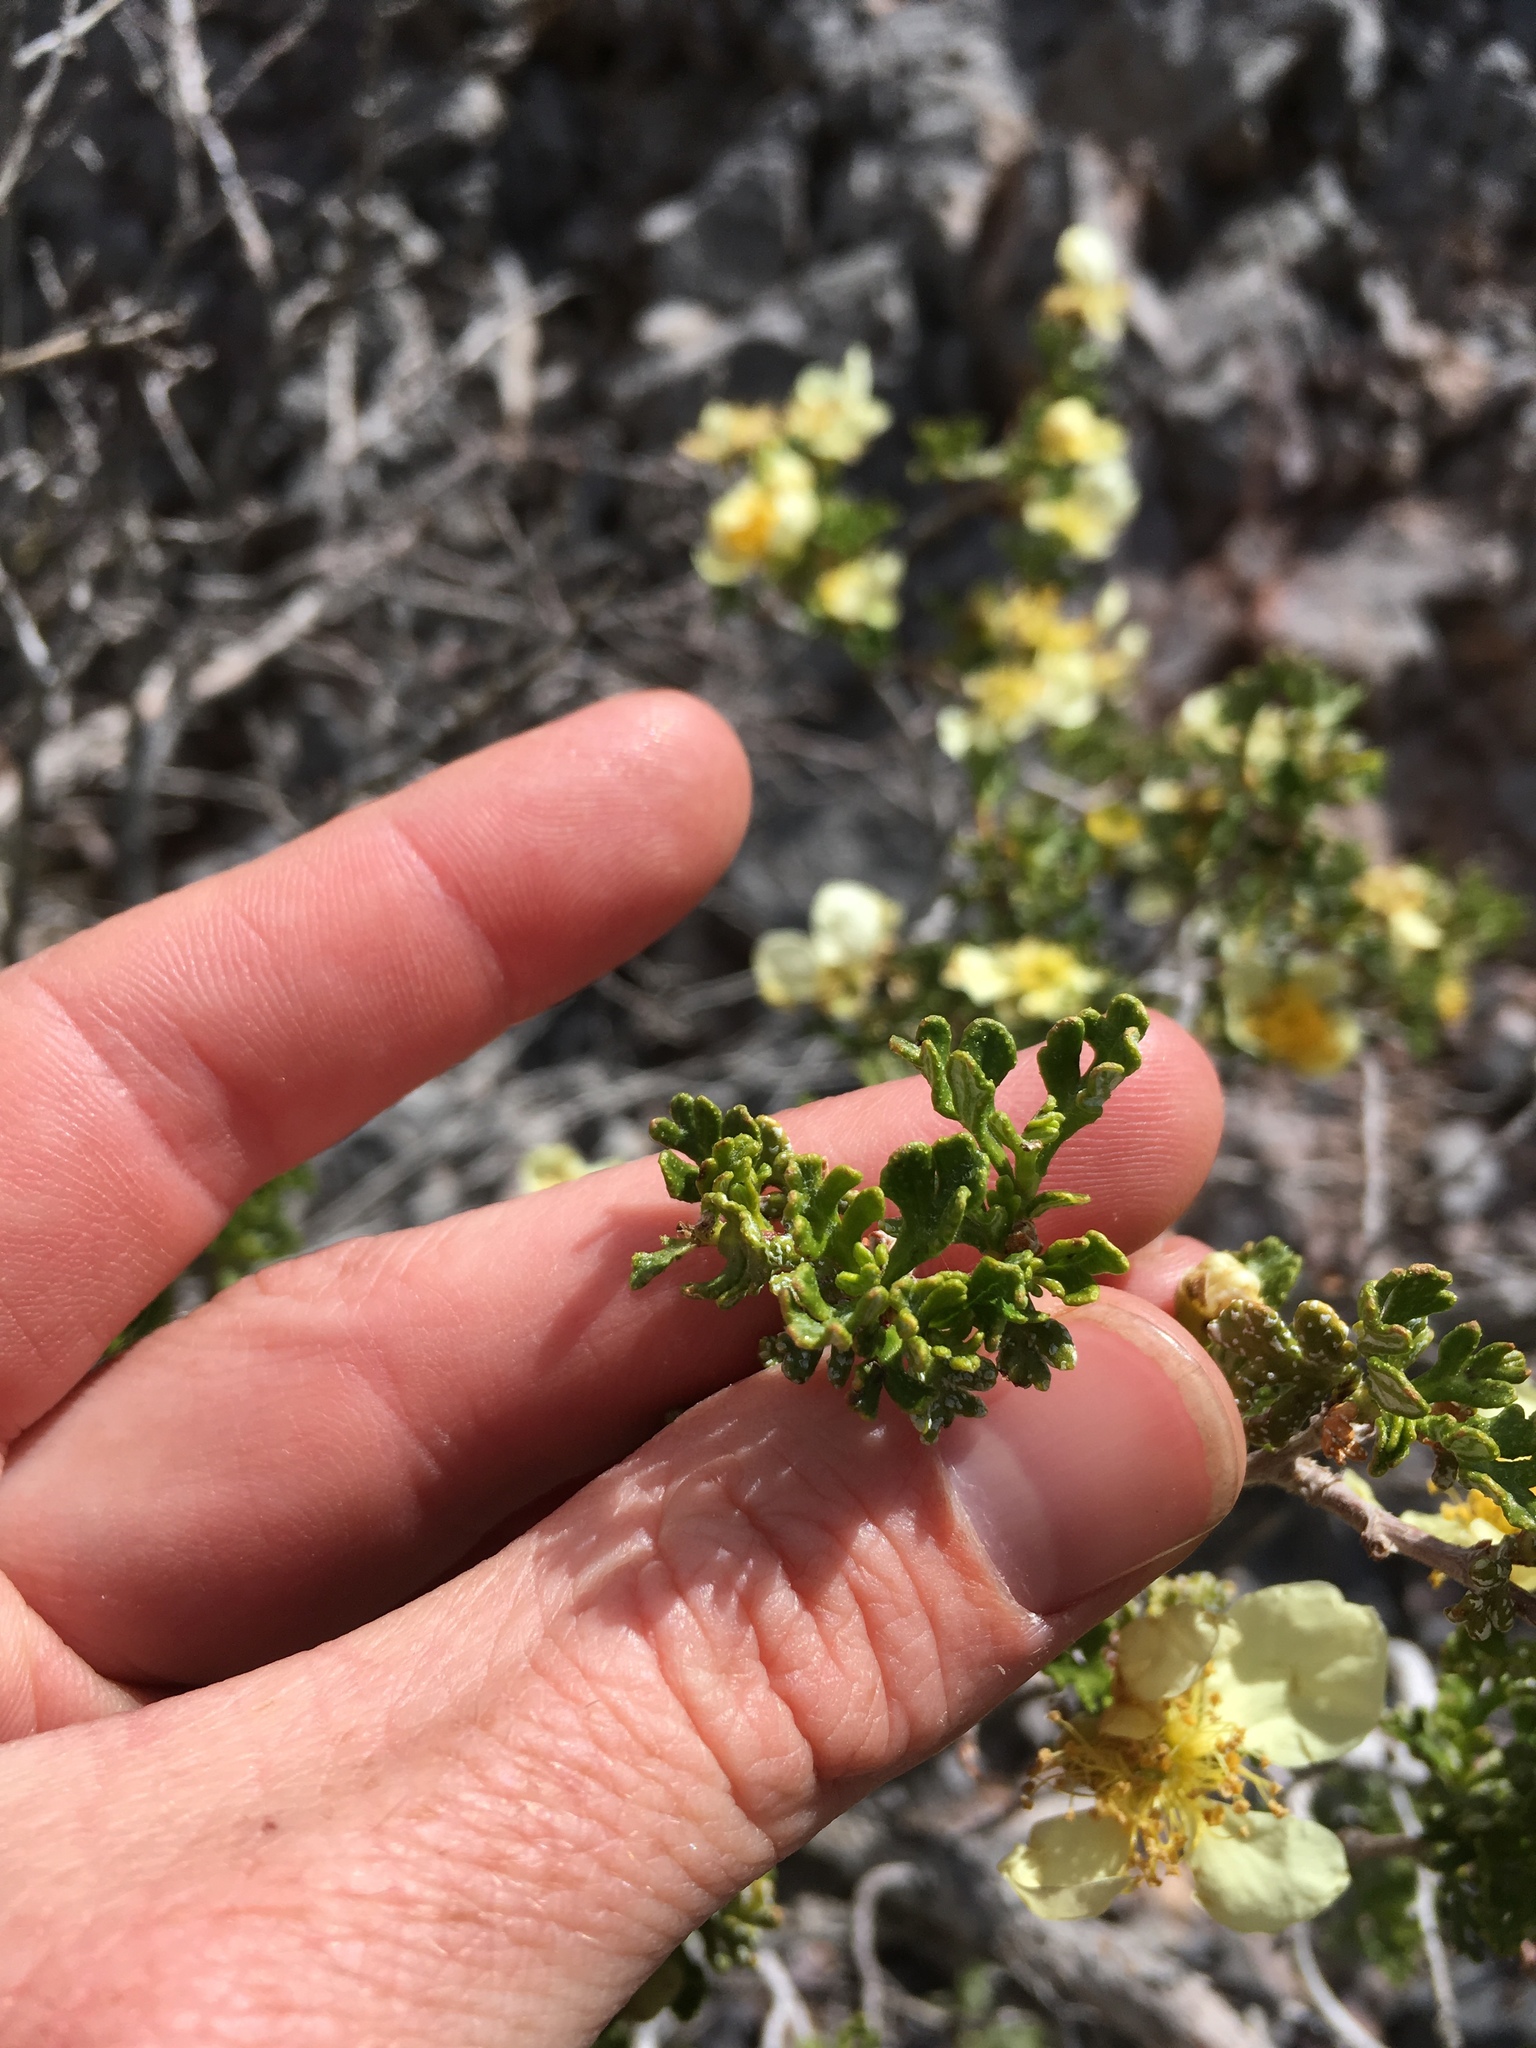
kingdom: Plantae
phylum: Tracheophyta
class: Magnoliopsida
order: Rosales
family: Rosaceae
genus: Purshia
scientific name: Purshia stansburiana
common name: Stansbury's cliffrose
